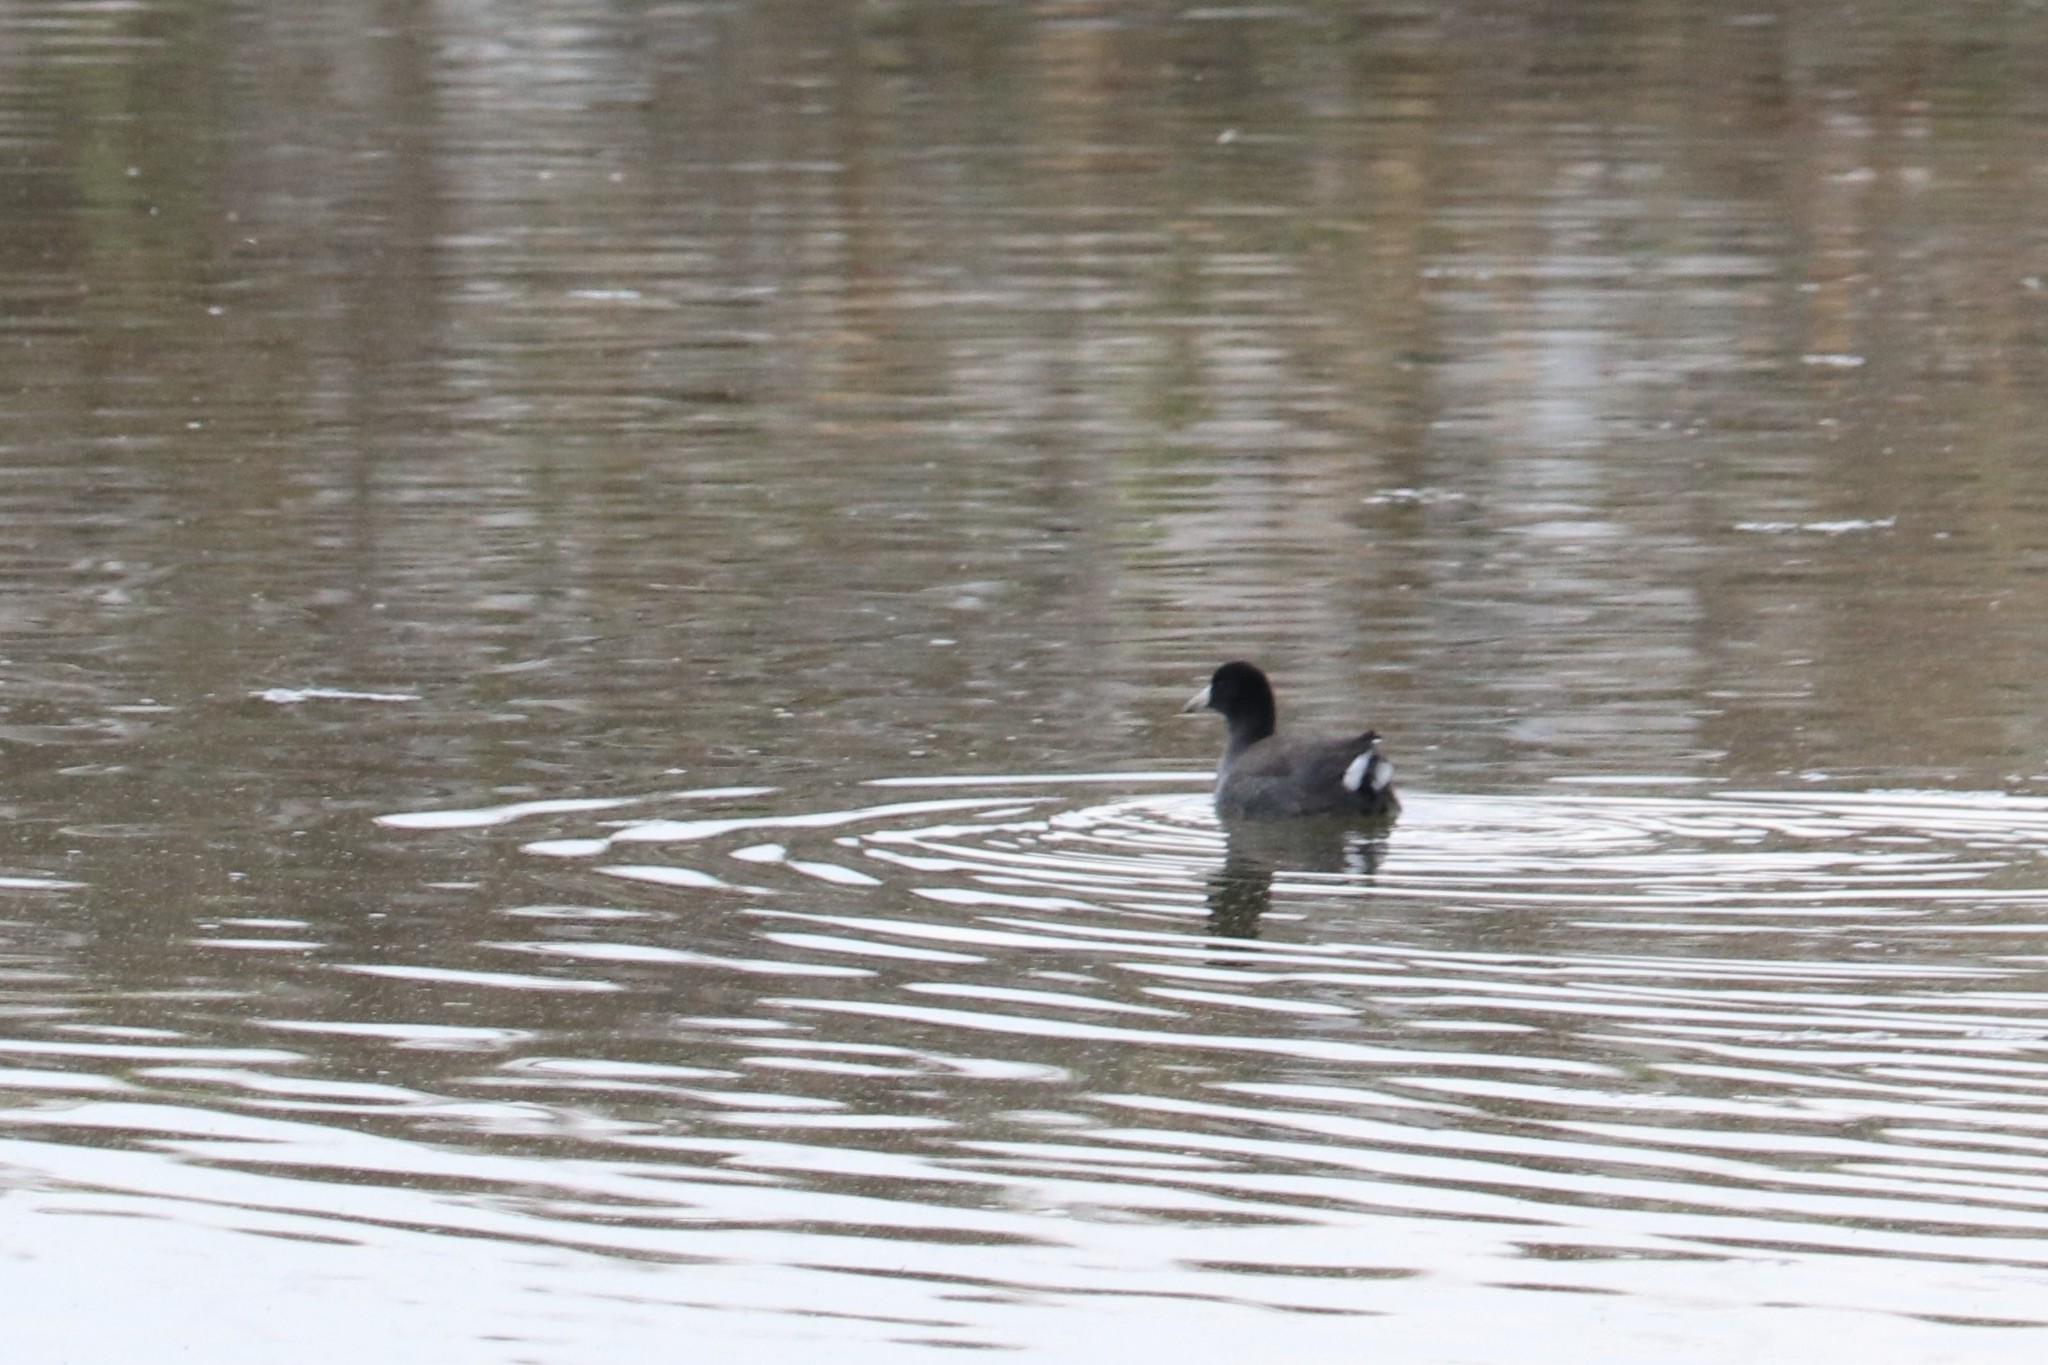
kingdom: Animalia
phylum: Chordata
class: Aves
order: Gruiformes
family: Rallidae
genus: Fulica
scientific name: Fulica americana
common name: American coot
